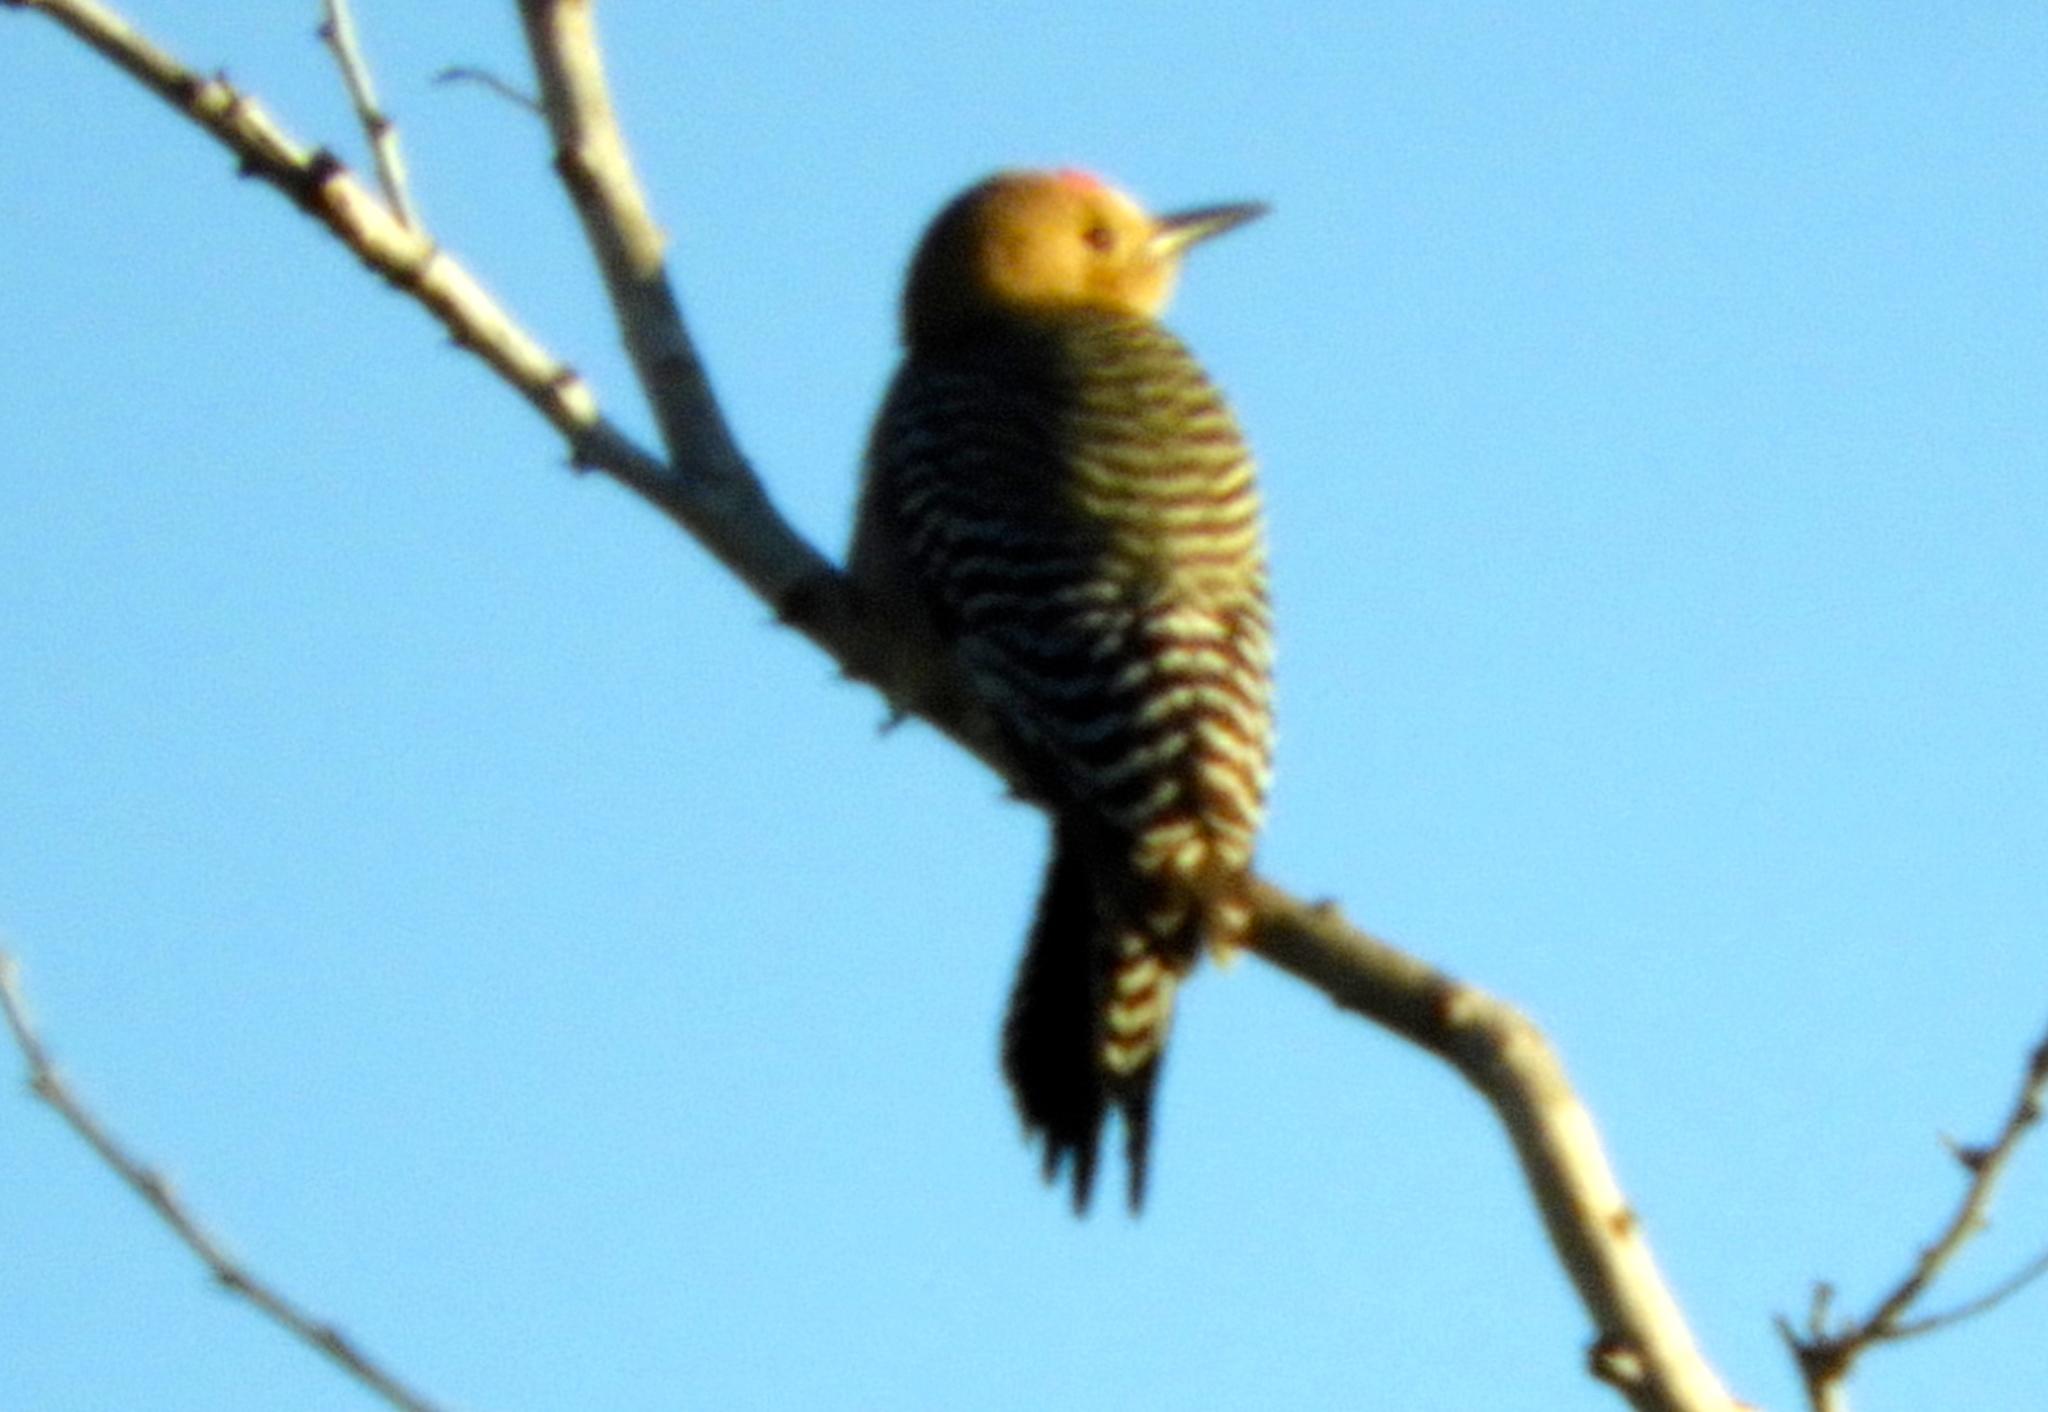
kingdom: Animalia
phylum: Chordata
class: Aves
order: Piciformes
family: Picidae
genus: Melanerpes
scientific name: Melanerpes uropygialis
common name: Gila woodpecker
